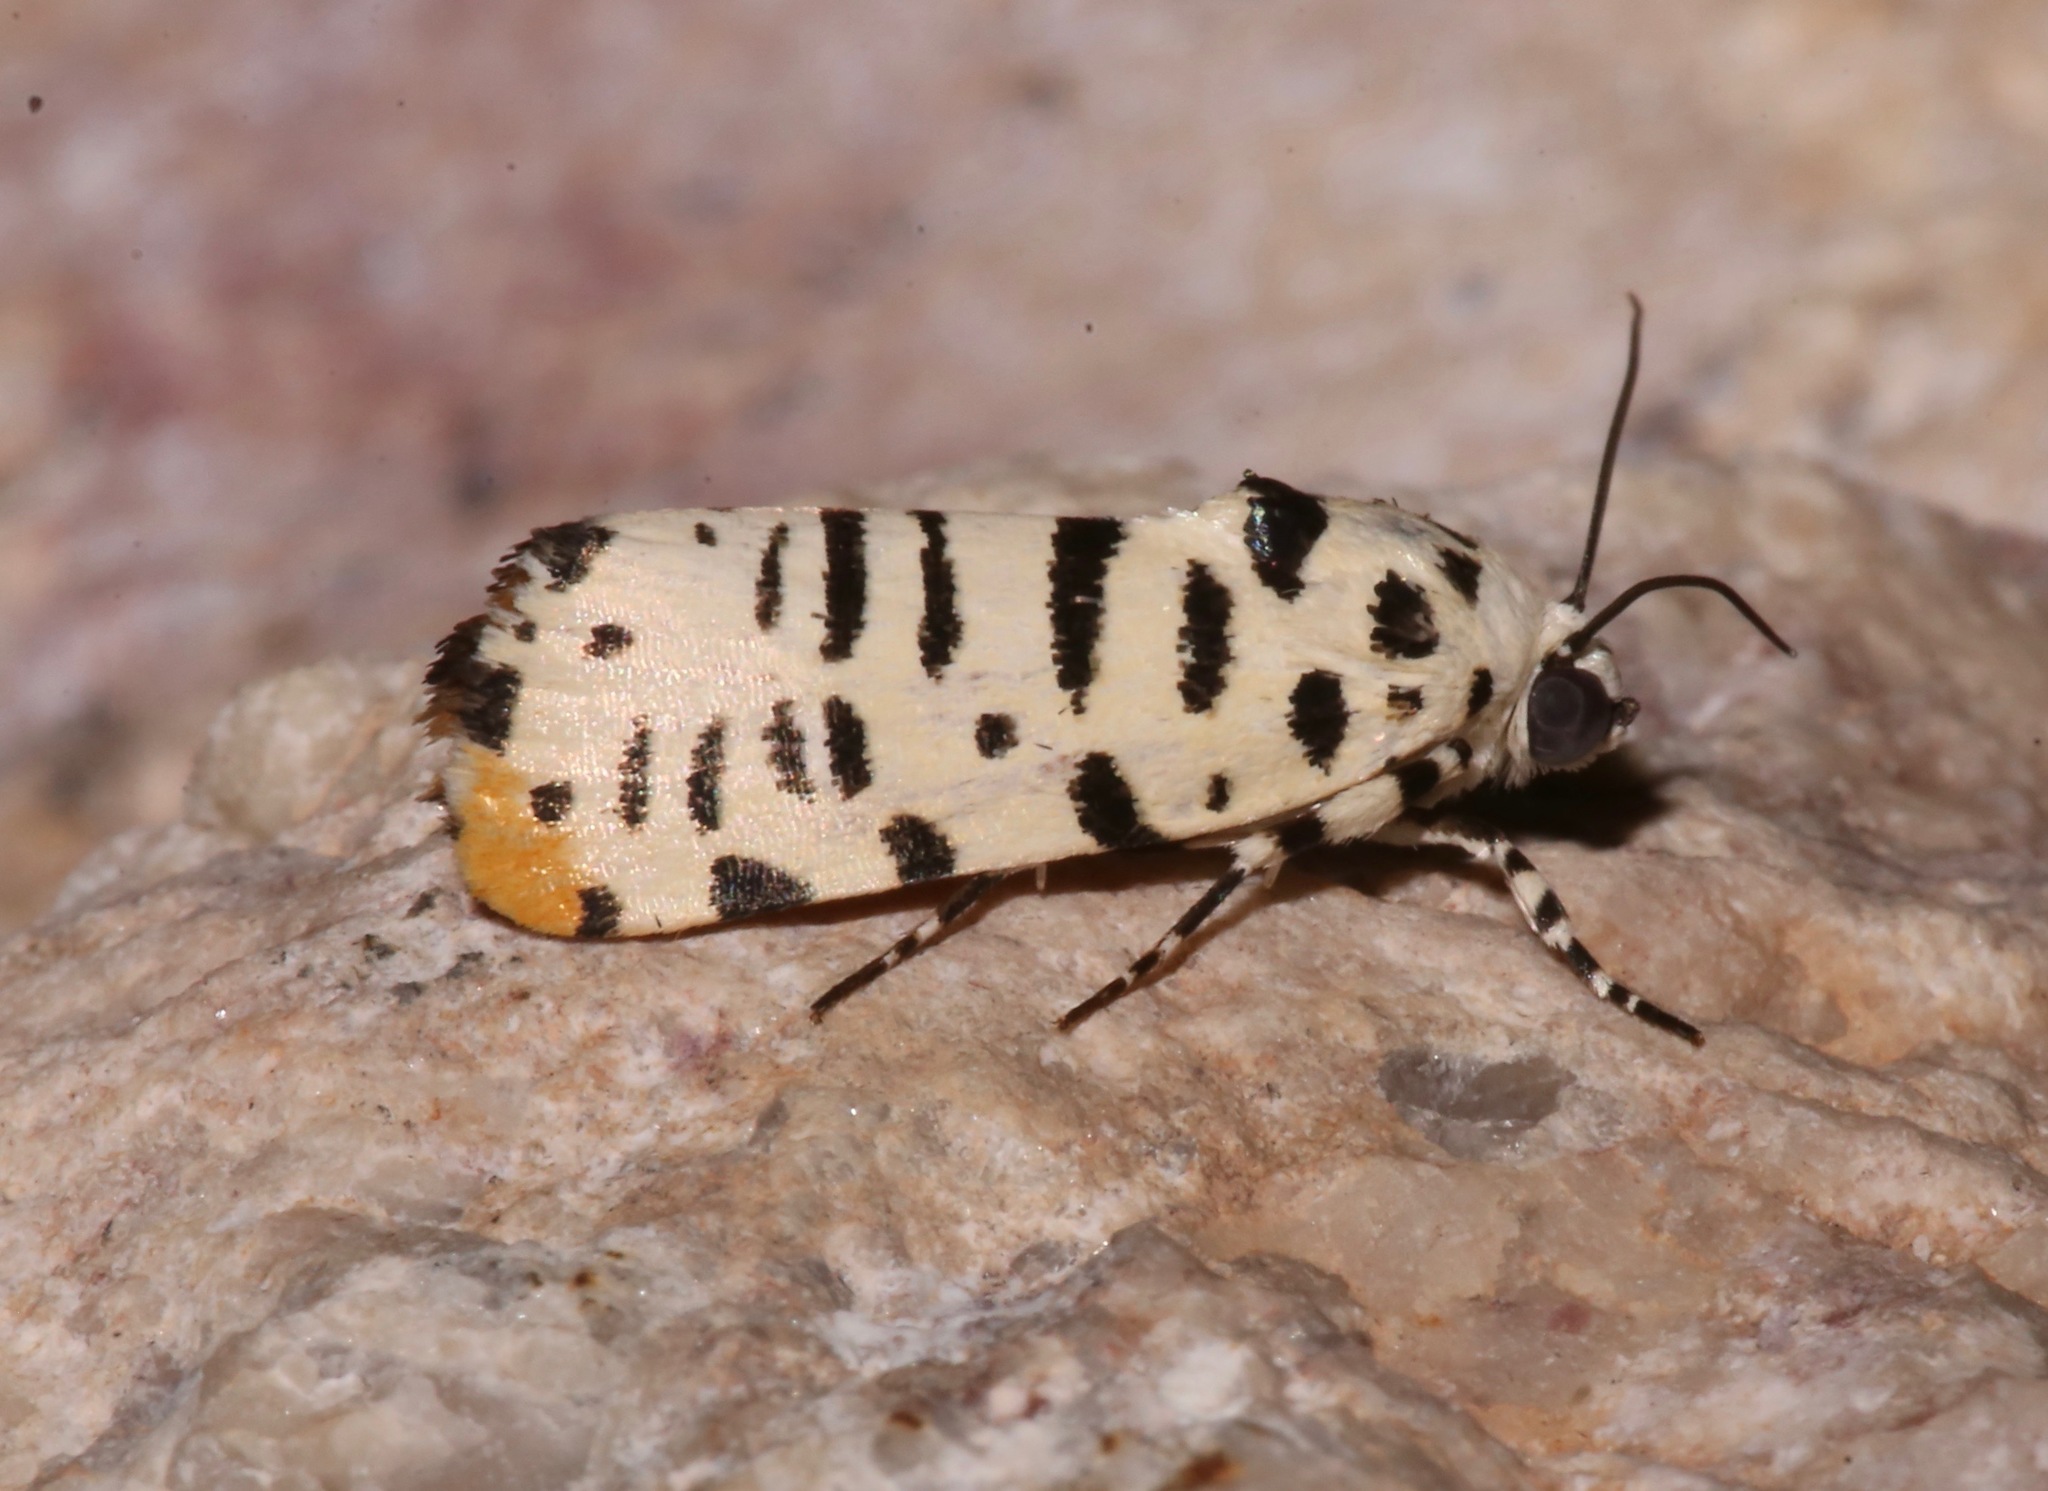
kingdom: Animalia
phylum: Arthropoda
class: Insecta
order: Lepidoptera
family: Noctuidae
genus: Acontia
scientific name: Acontia idella
